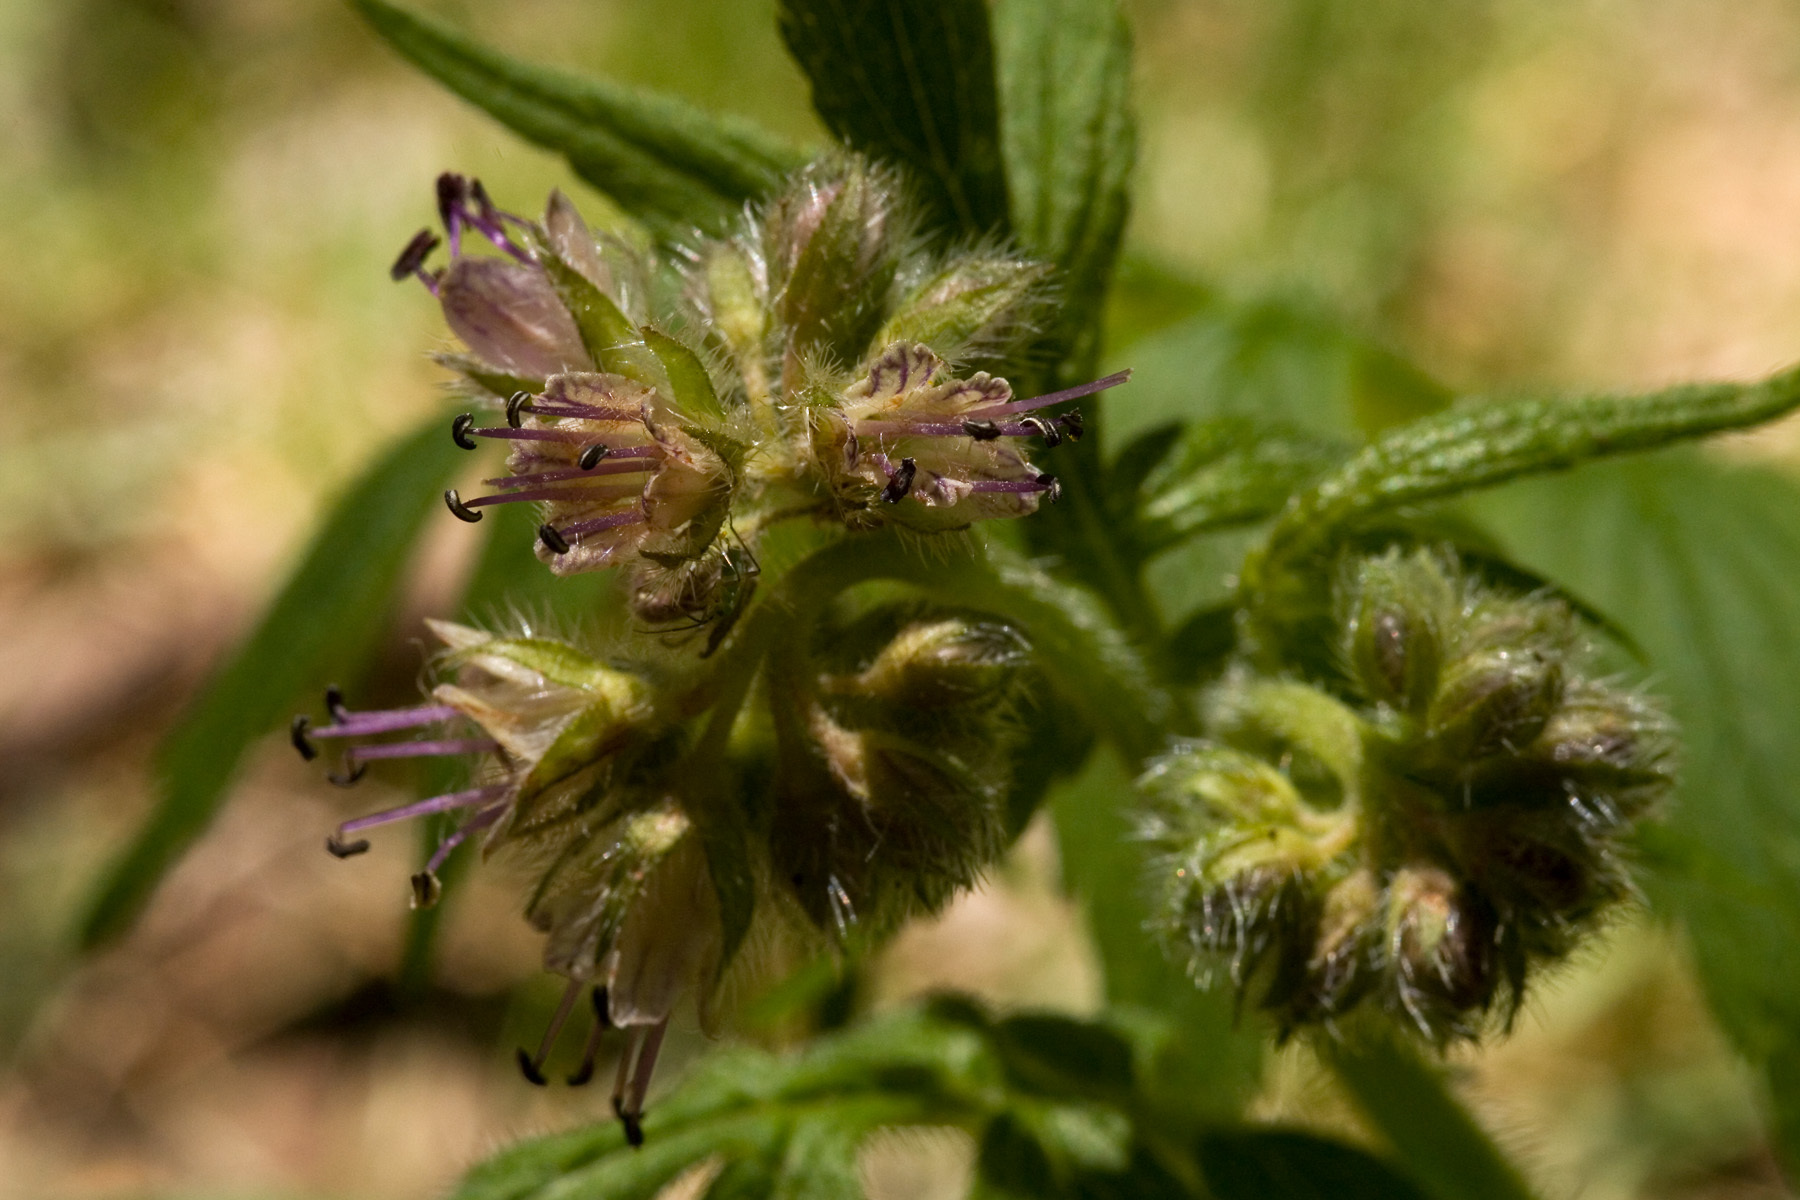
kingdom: Plantae
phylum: Tracheophyta
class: Magnoliopsida
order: Boraginales
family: Hydrophyllaceae
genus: Hydrophyllum
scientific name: Hydrophyllum fendleri
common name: Fendler's waterleaf
